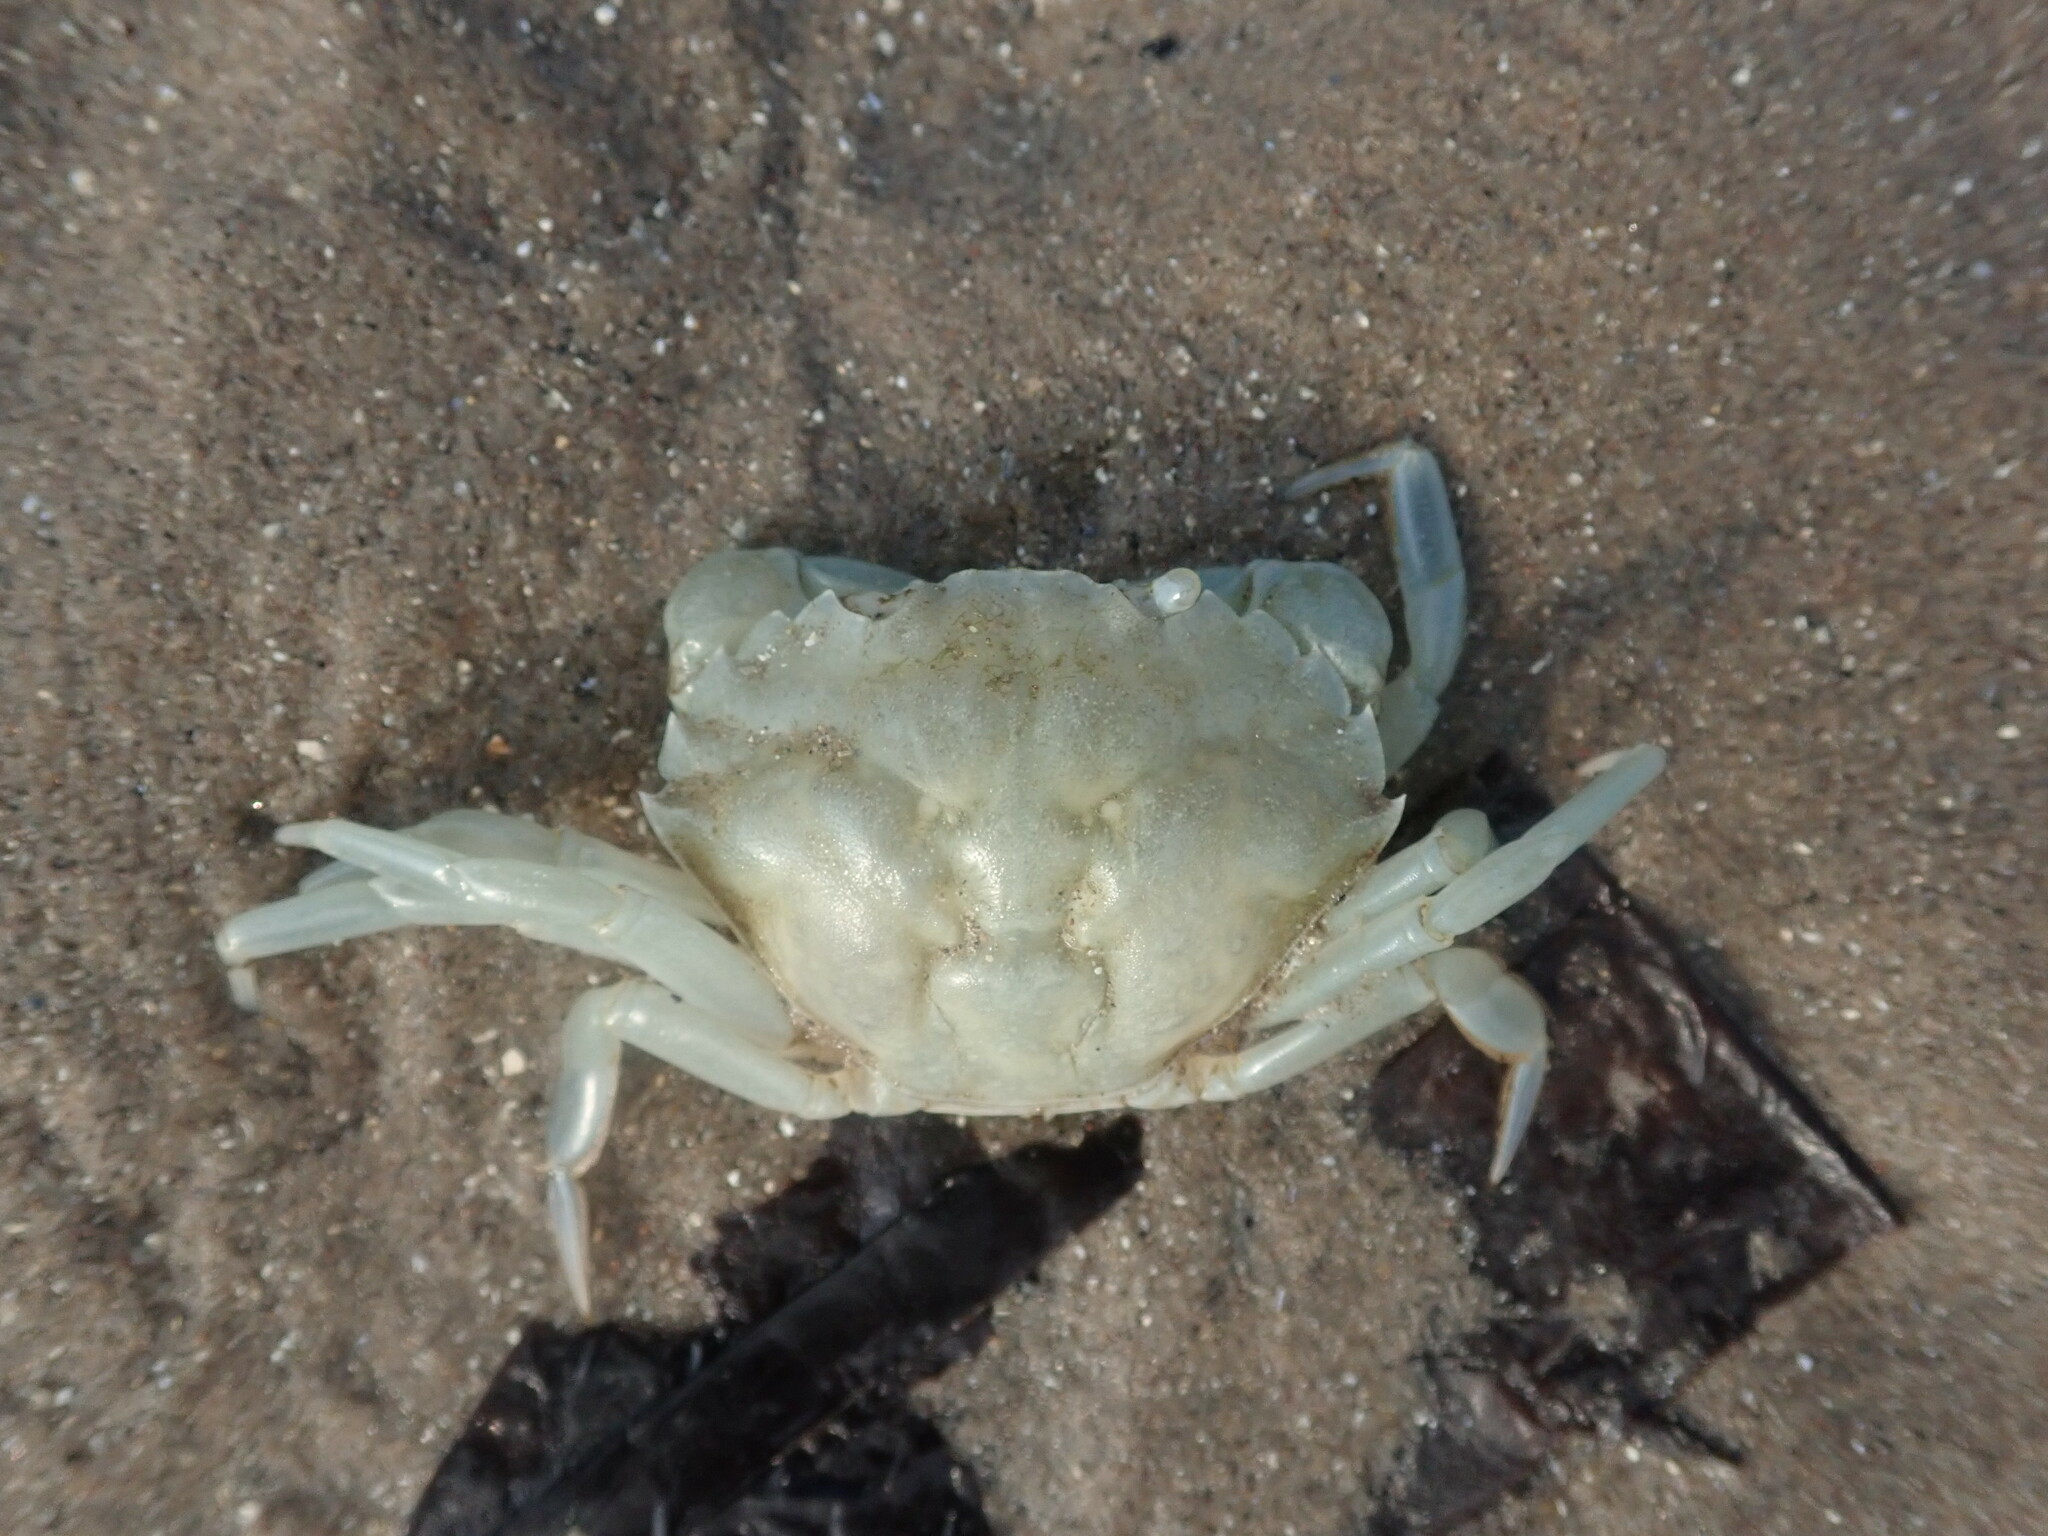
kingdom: Animalia
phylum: Arthropoda
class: Malacostraca
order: Decapoda
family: Carcinidae
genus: Carcinus
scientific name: Carcinus maenas
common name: European green crab
